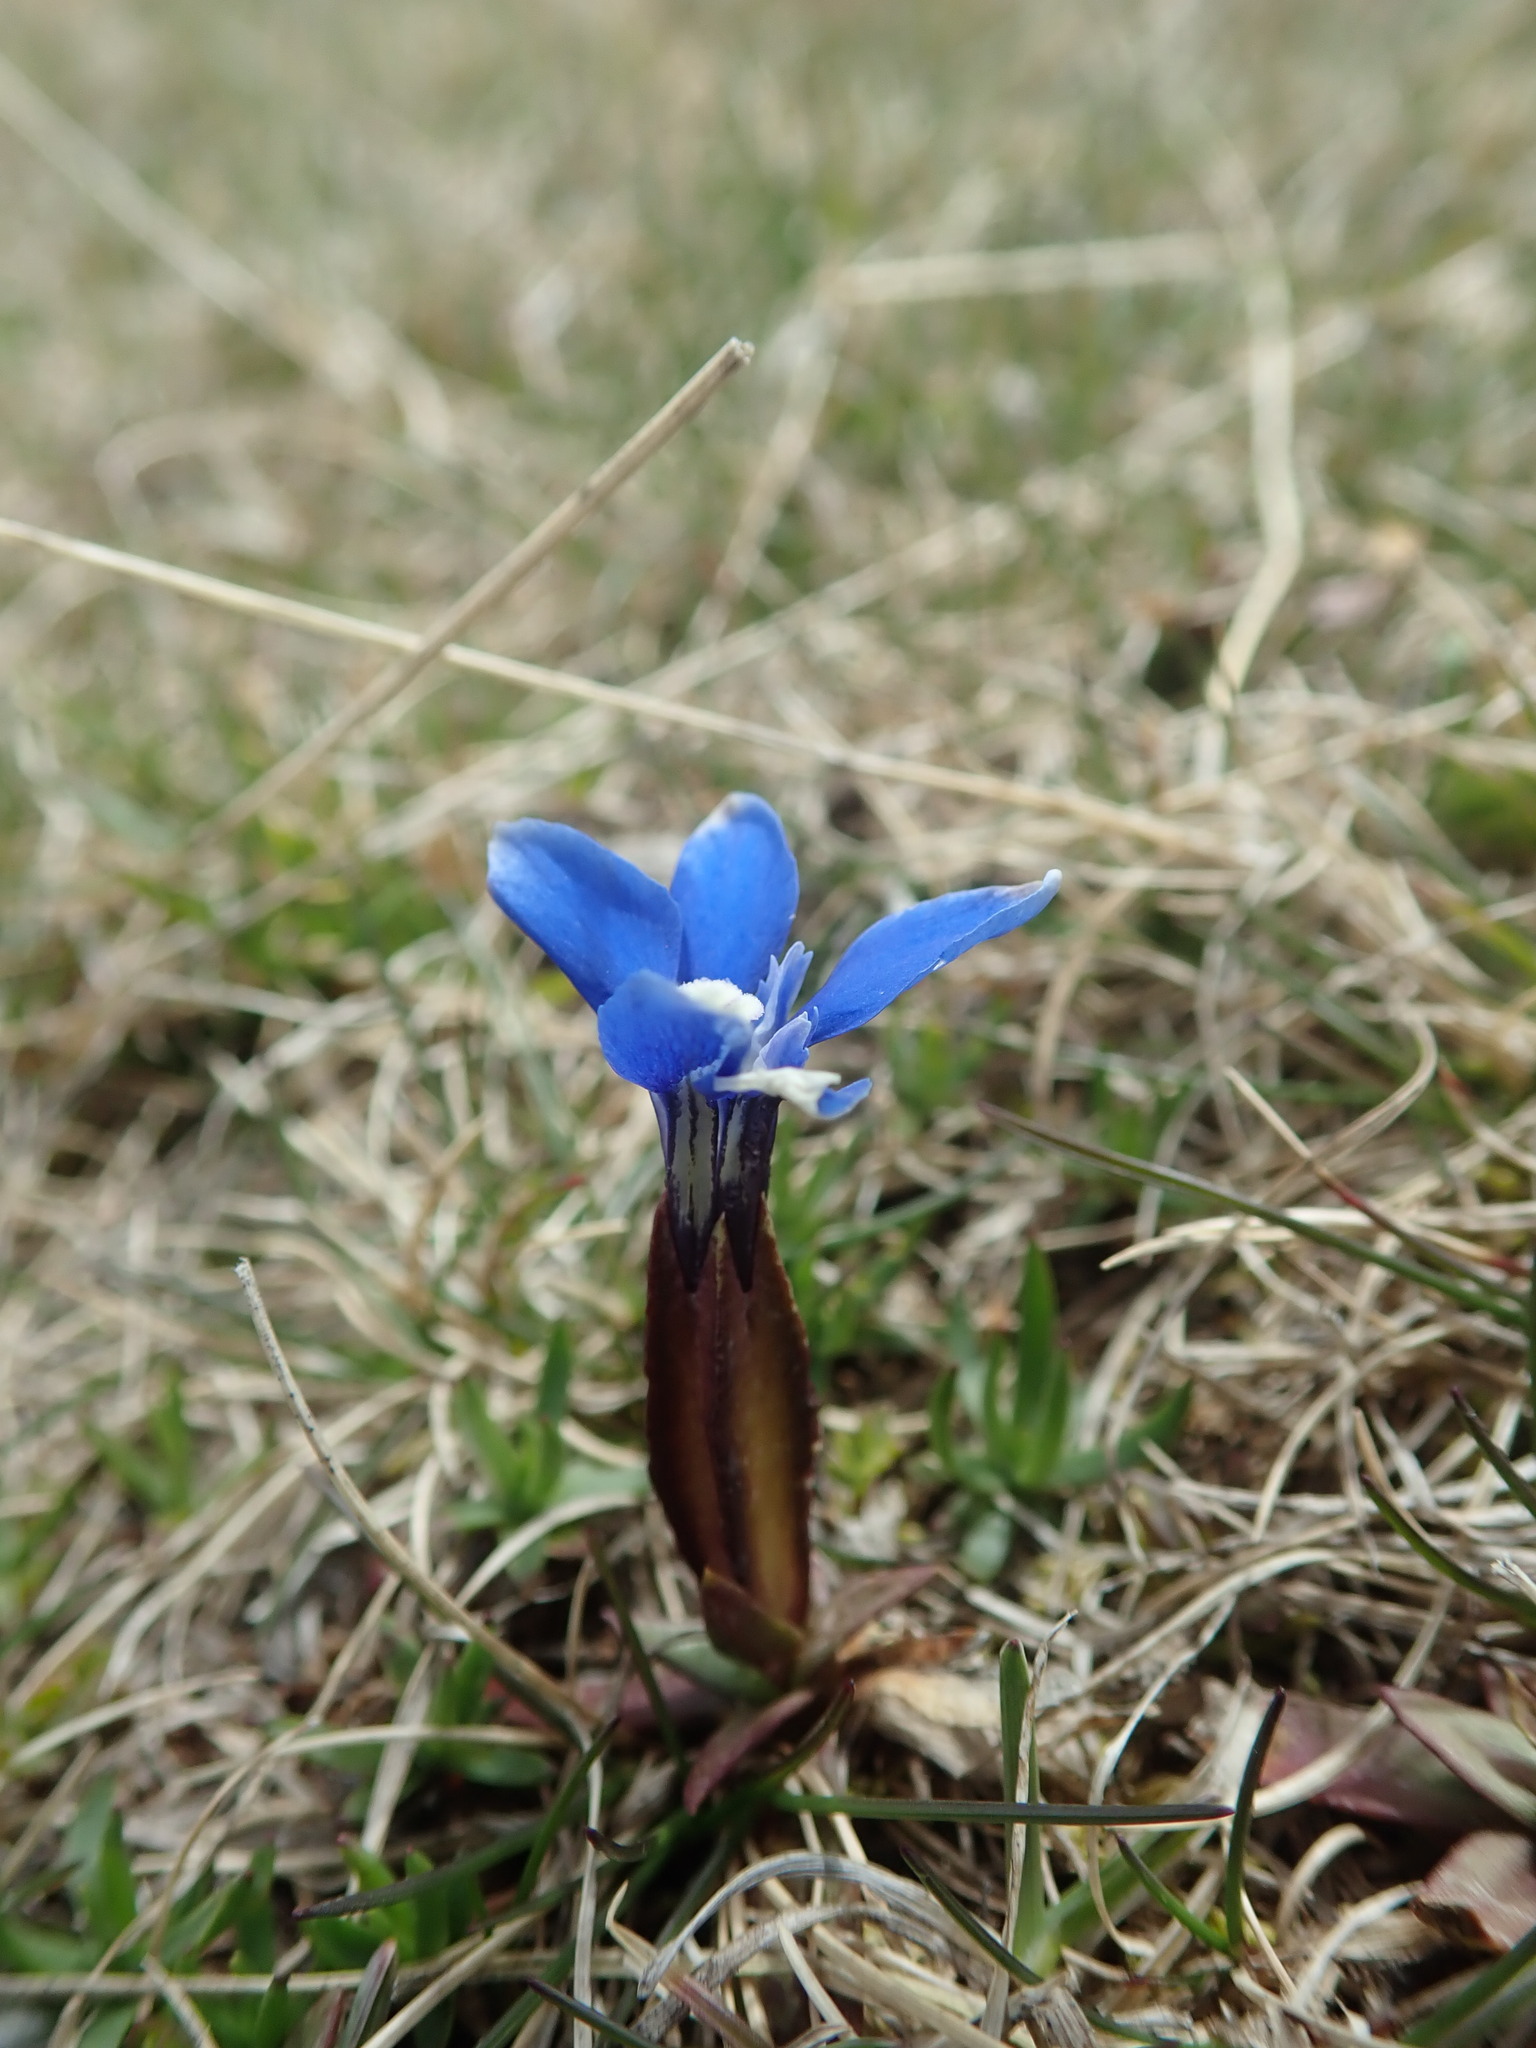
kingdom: Plantae
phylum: Tracheophyta
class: Magnoliopsida
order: Gentianales
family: Gentianaceae
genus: Gentiana
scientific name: Gentiana pumila
